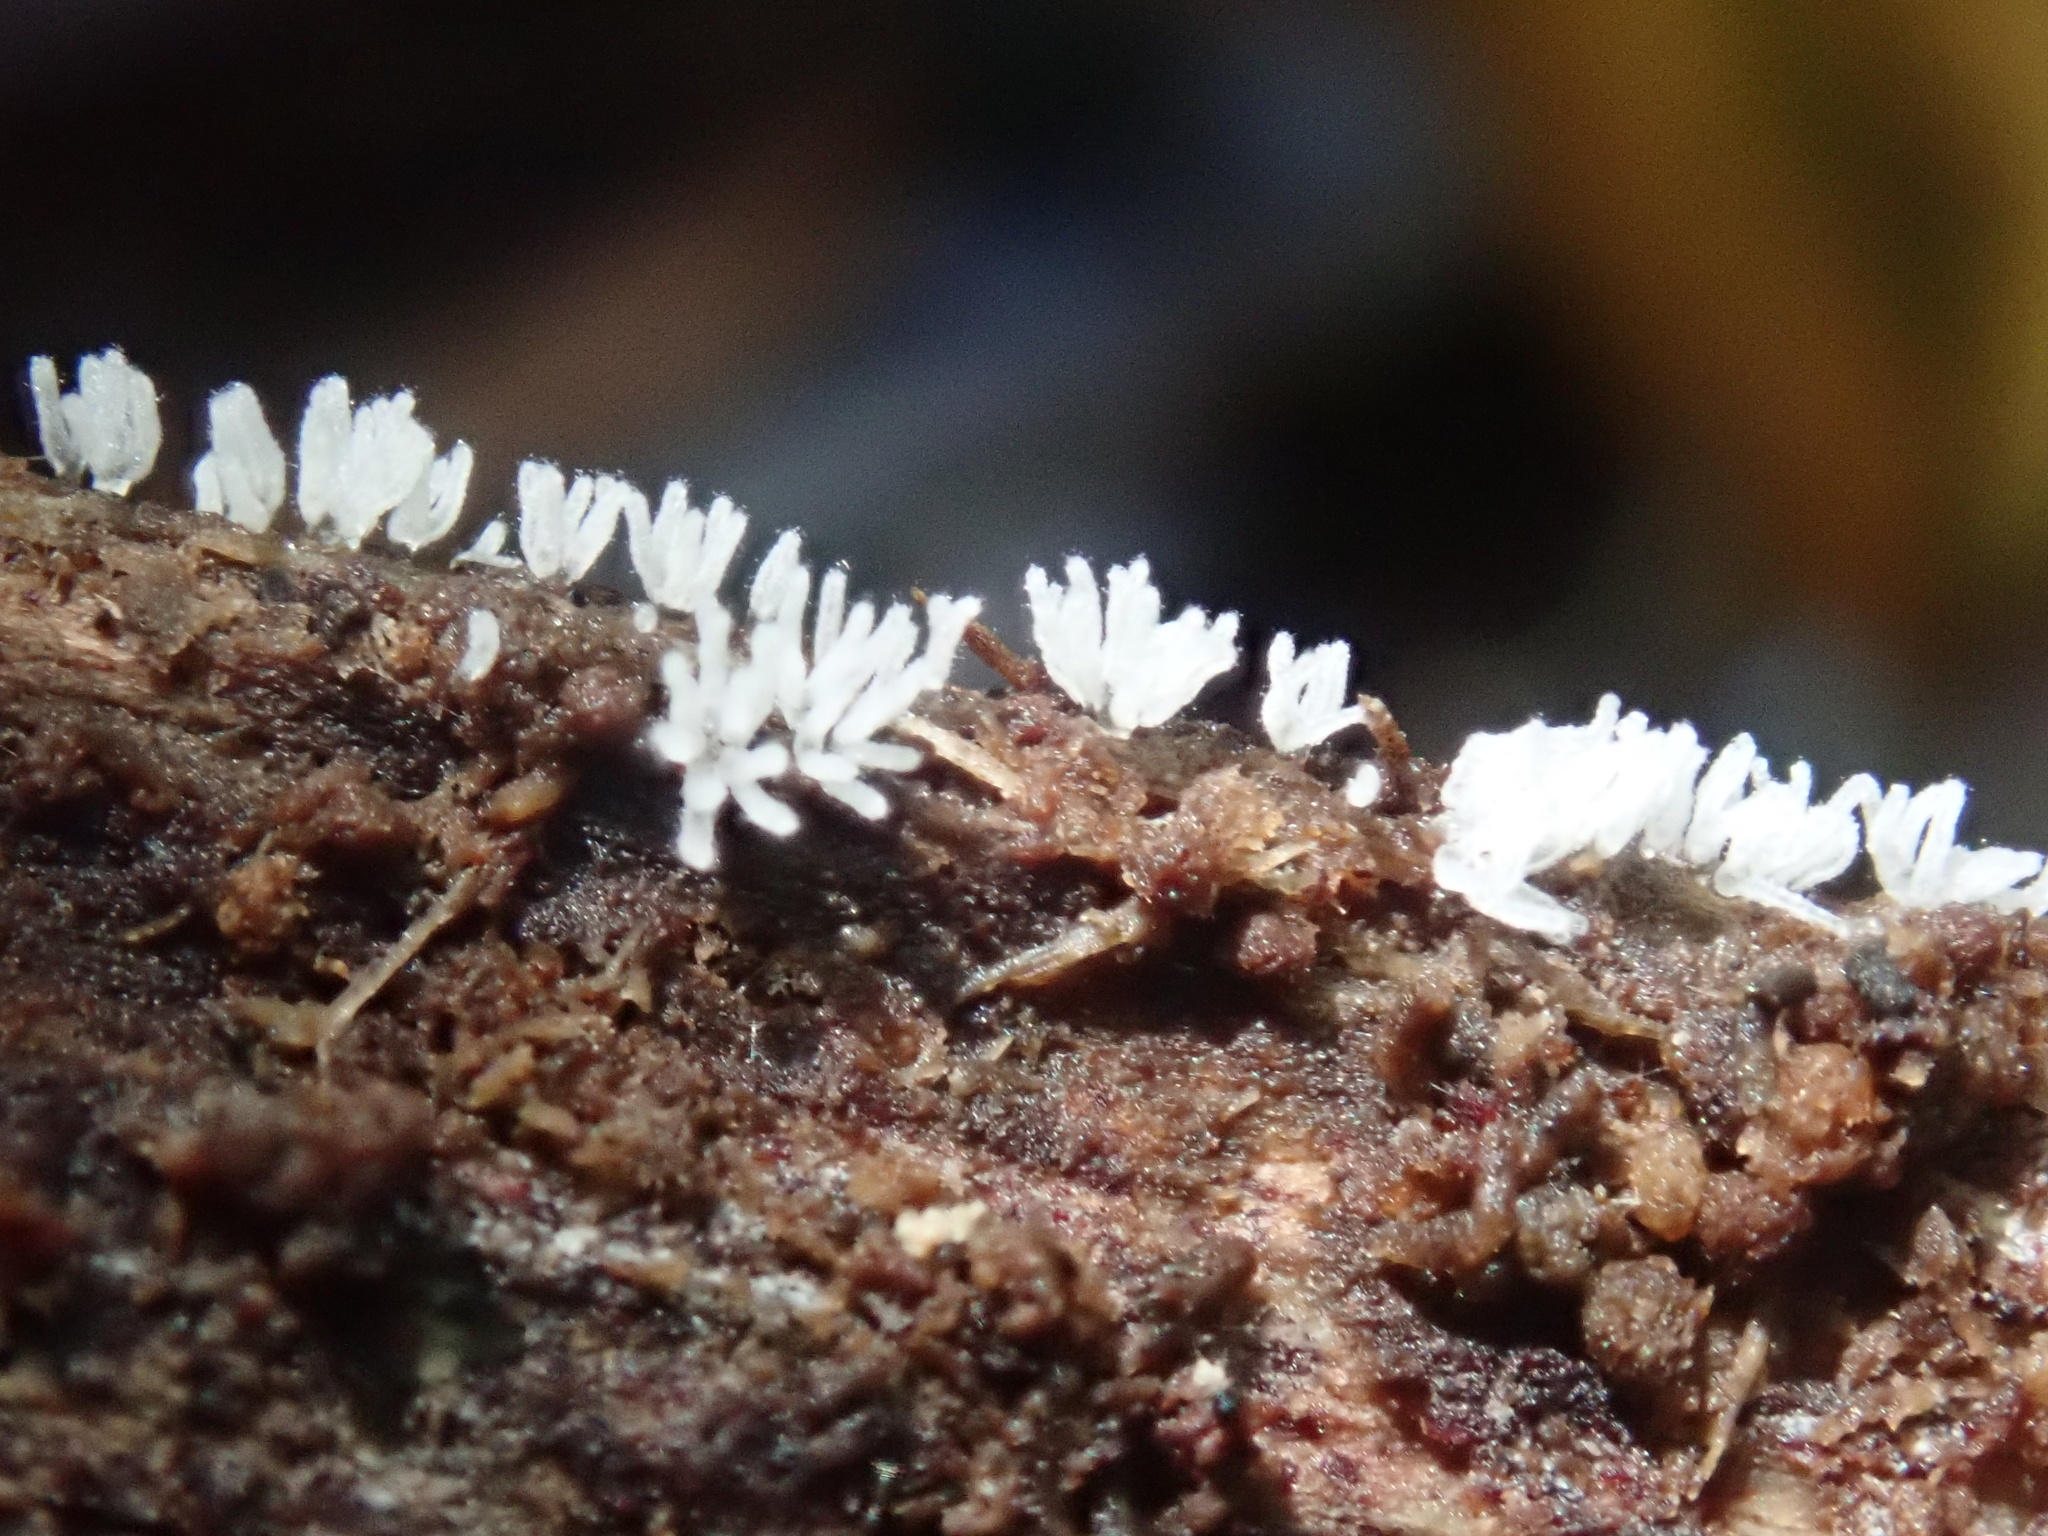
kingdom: Protozoa
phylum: Mycetozoa
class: Protosteliomycetes
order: Ceratiomyxales
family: Ceratiomyxaceae
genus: Ceratiomyxa
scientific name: Ceratiomyxa fruticulosa
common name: Honeycomb coral slime mold
